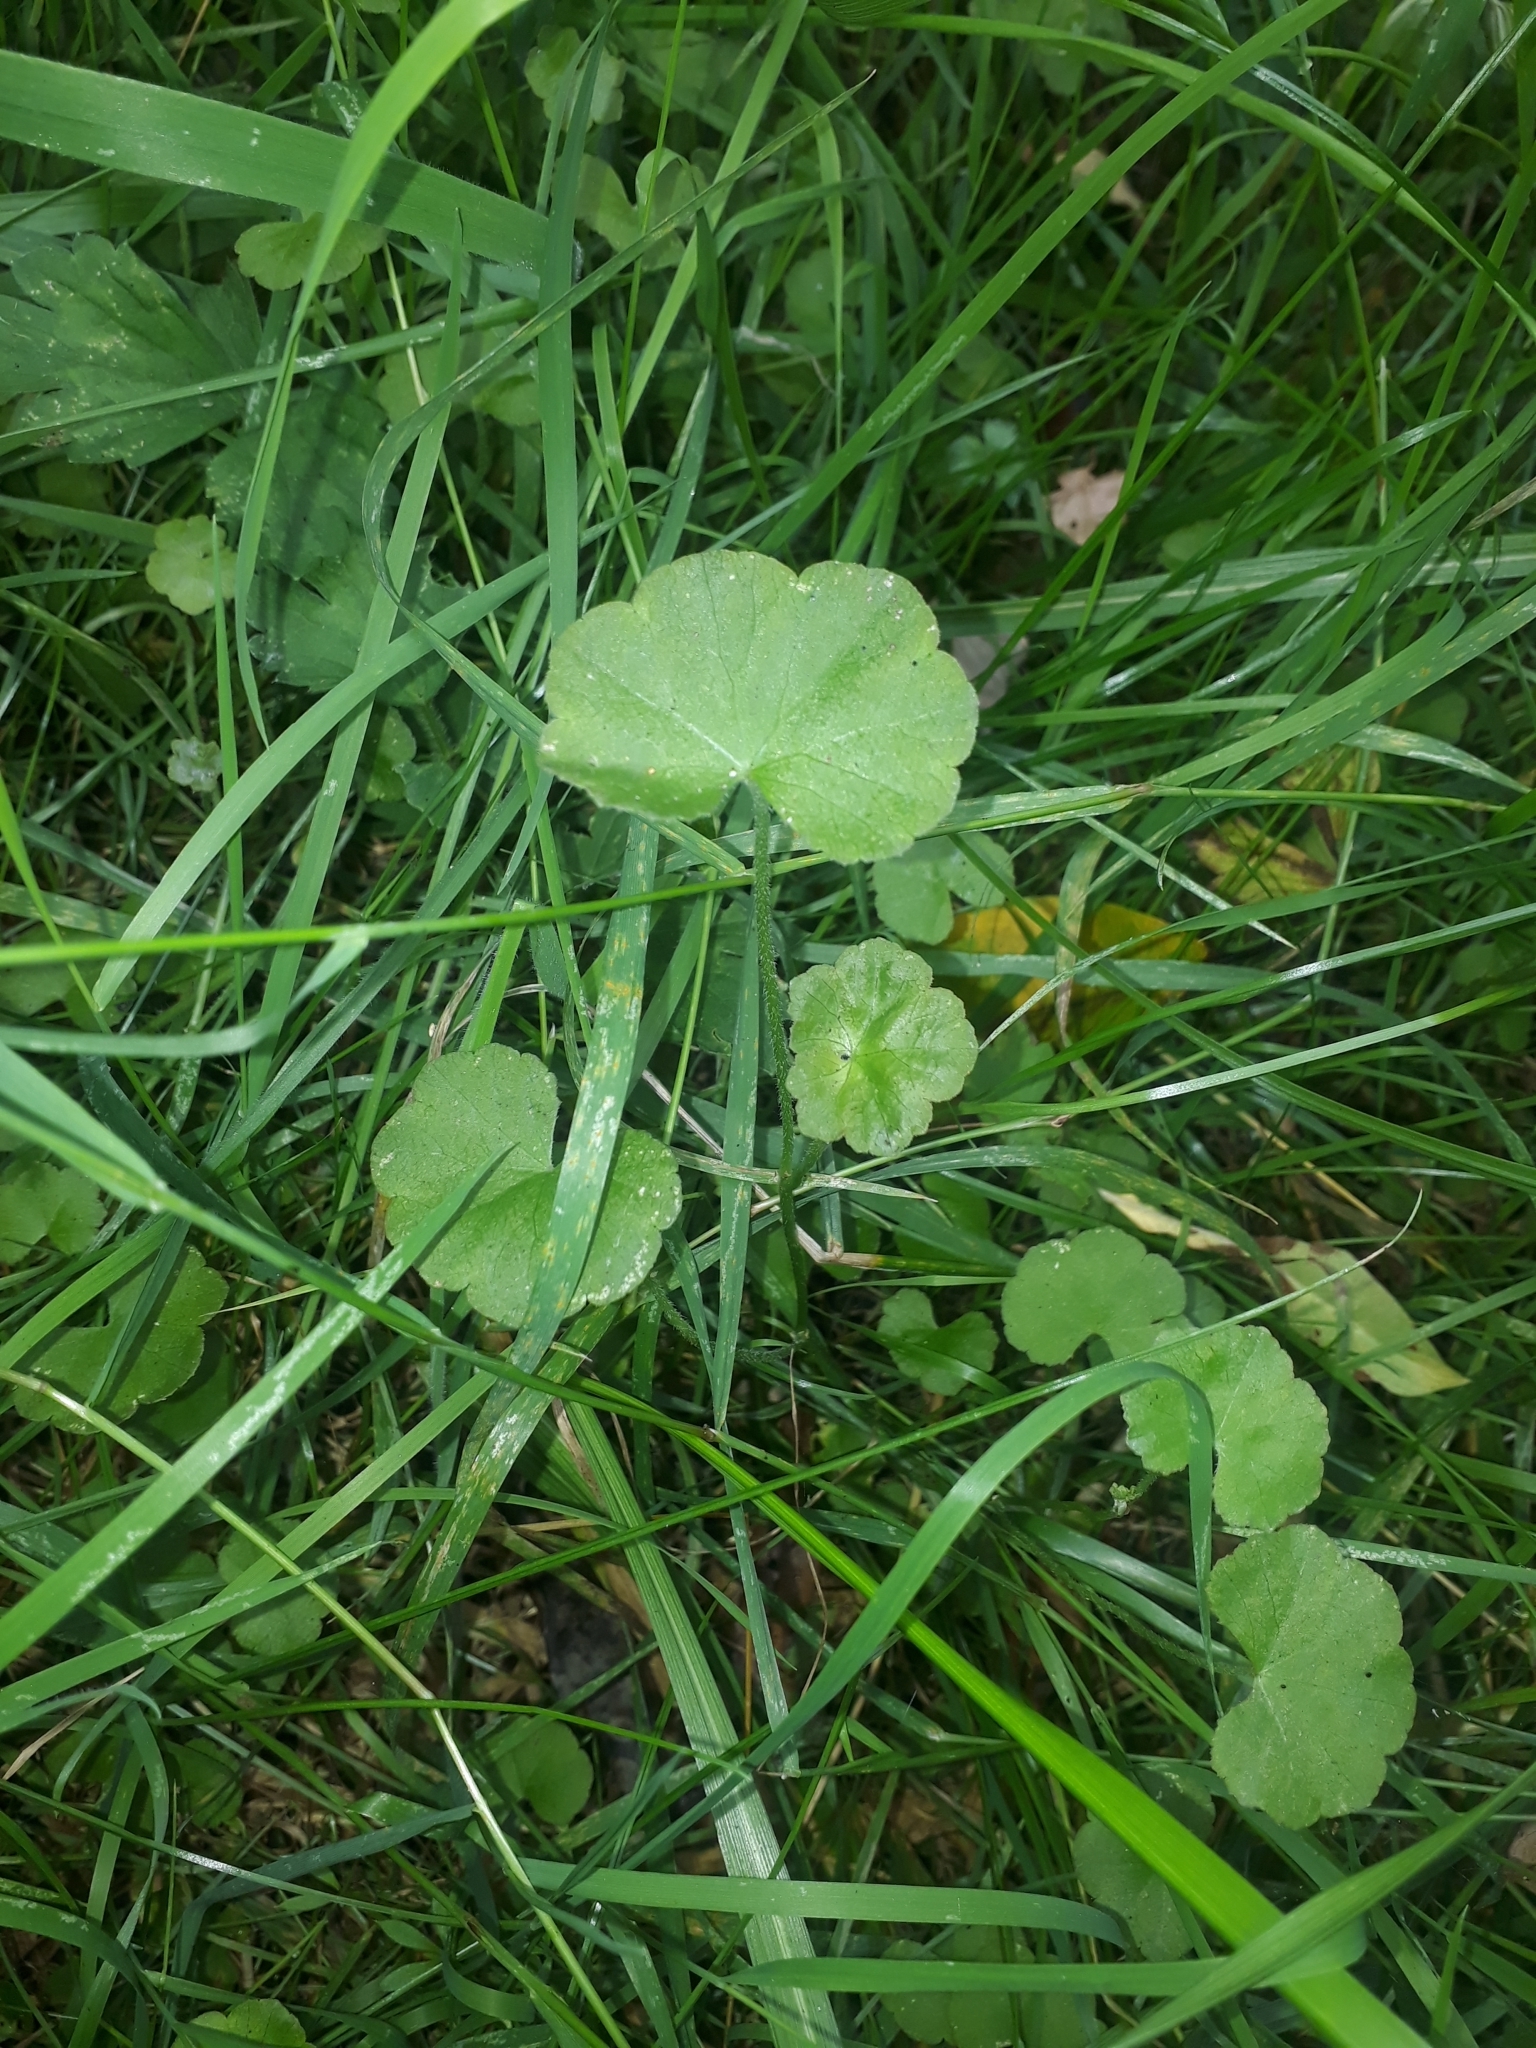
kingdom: Plantae
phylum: Tracheophyta
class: Magnoliopsida
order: Apiales
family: Araliaceae
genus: Hydrocotyle
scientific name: Hydrocotyle robusta
